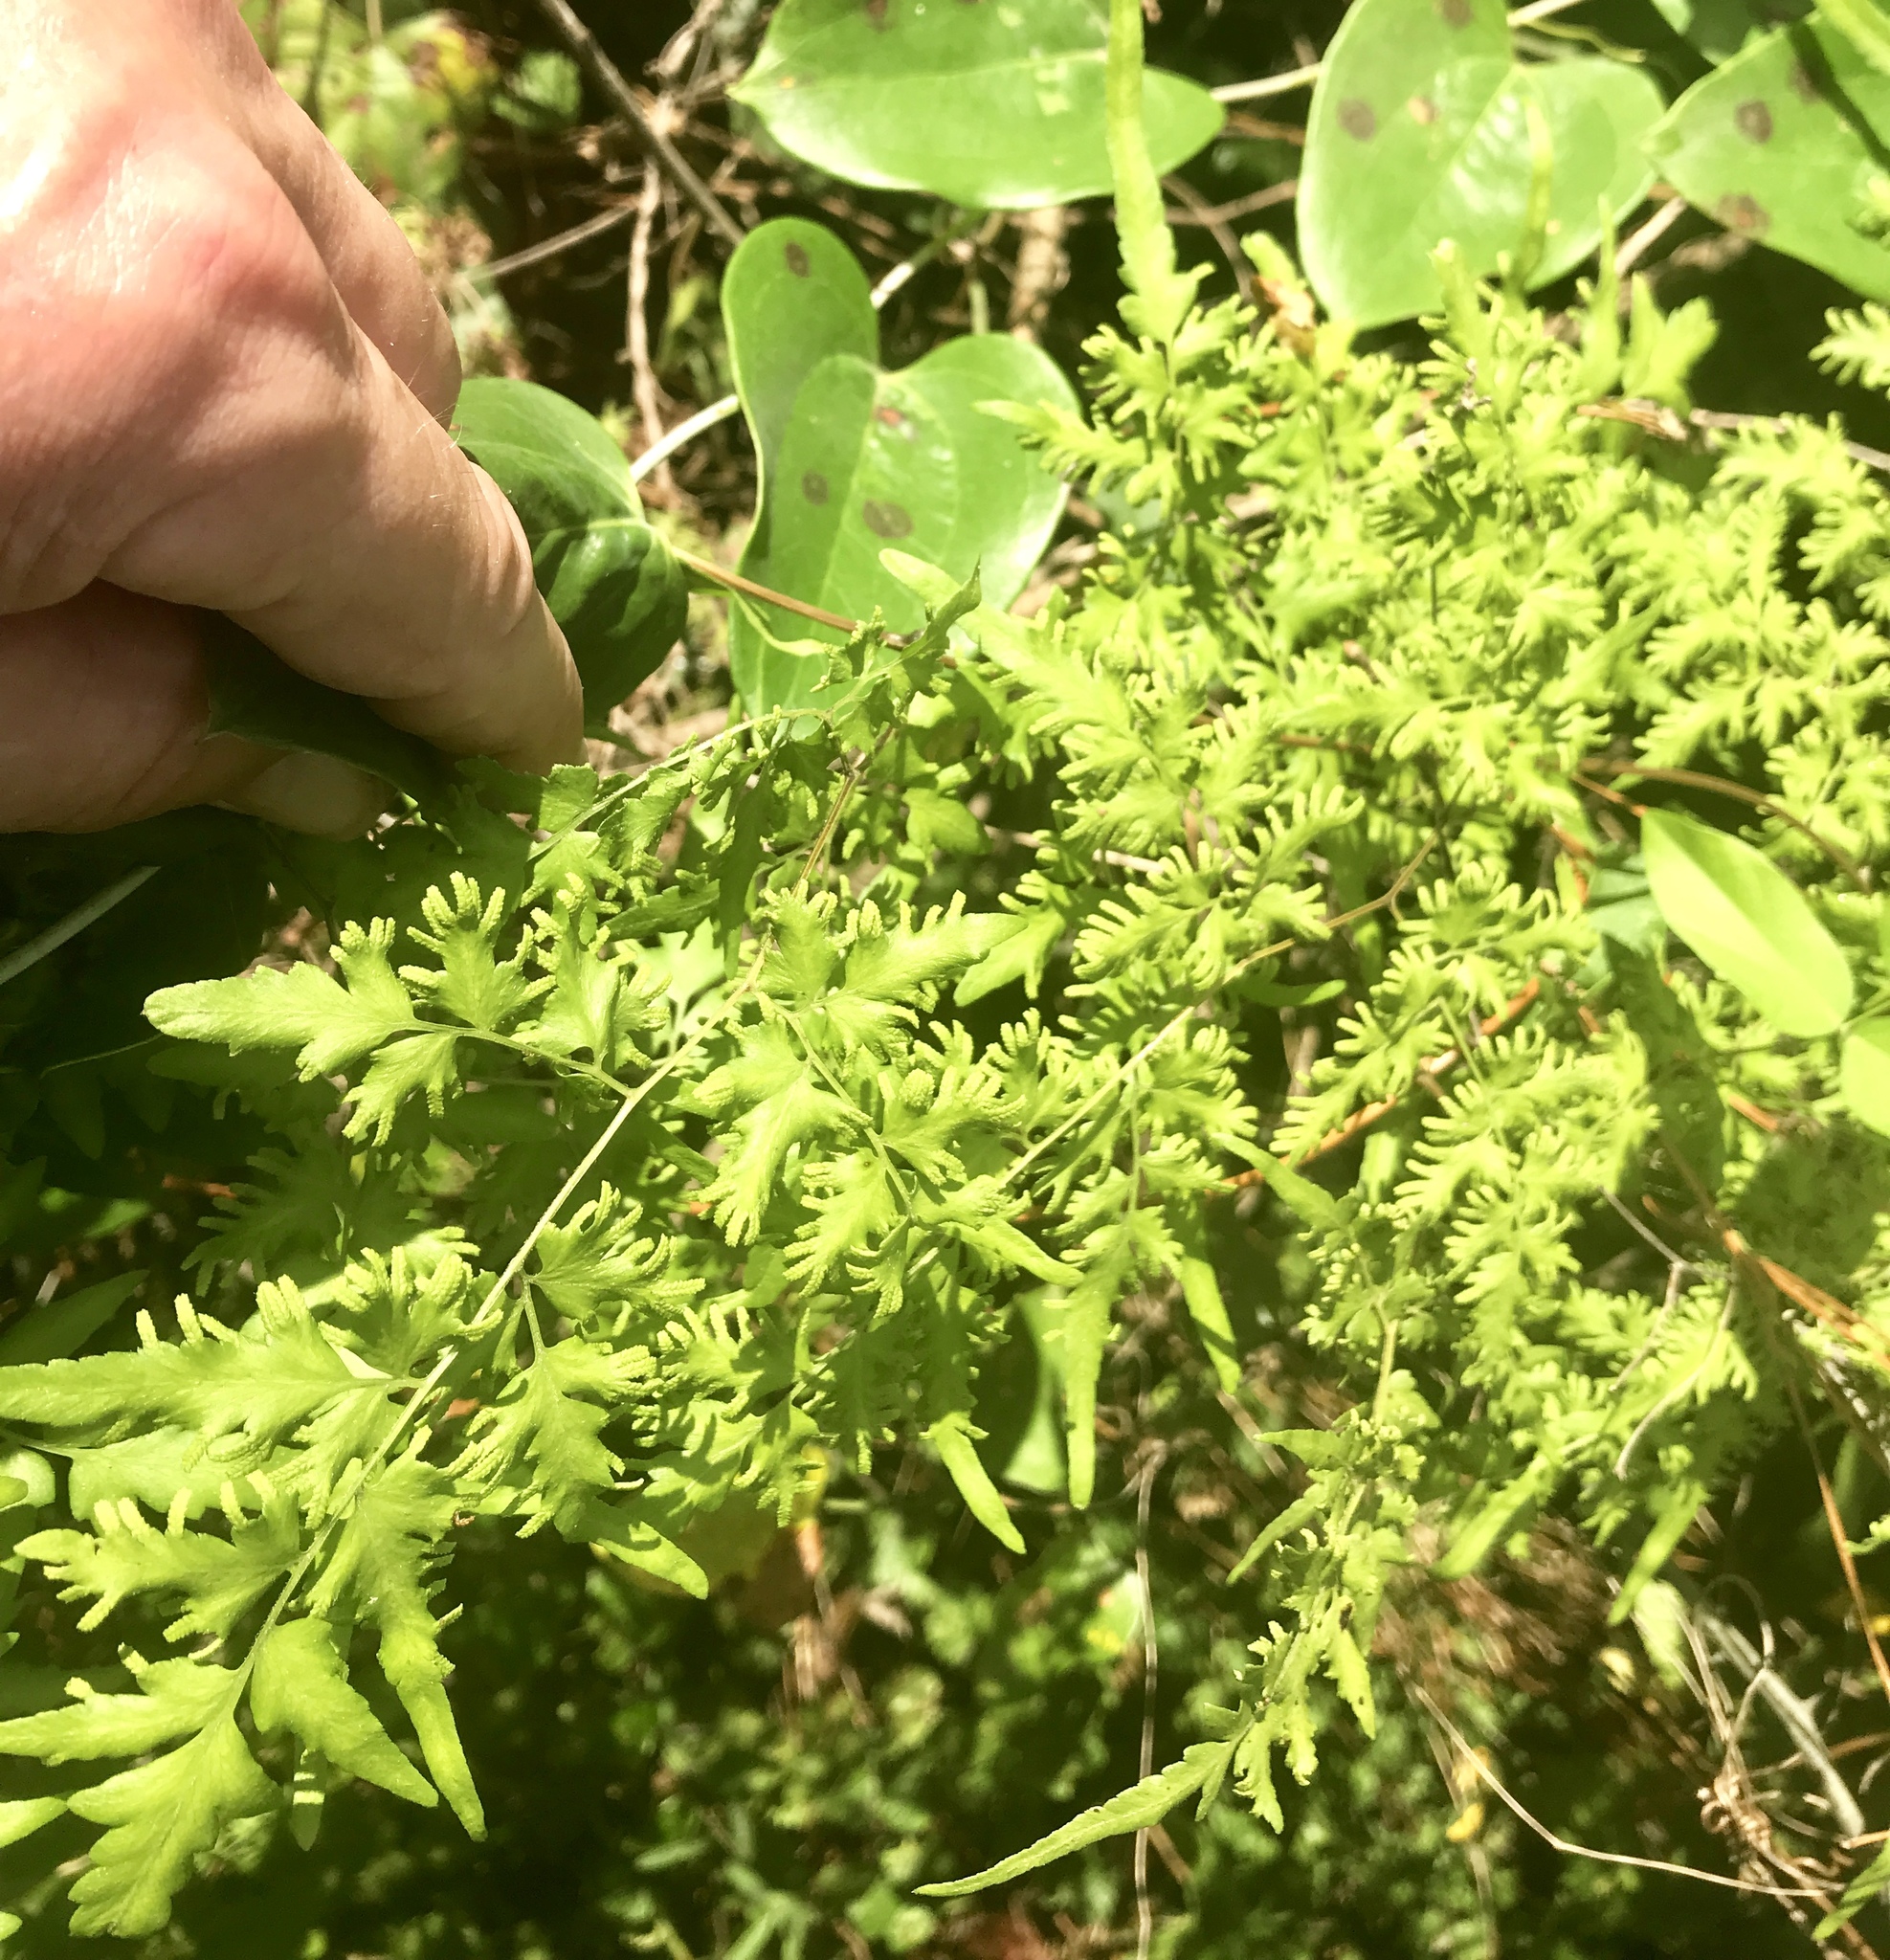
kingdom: Plantae
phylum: Tracheophyta
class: Polypodiopsida
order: Schizaeales
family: Lygodiaceae
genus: Lygodium
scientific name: Lygodium japonicum
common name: Japanese climbing fern
